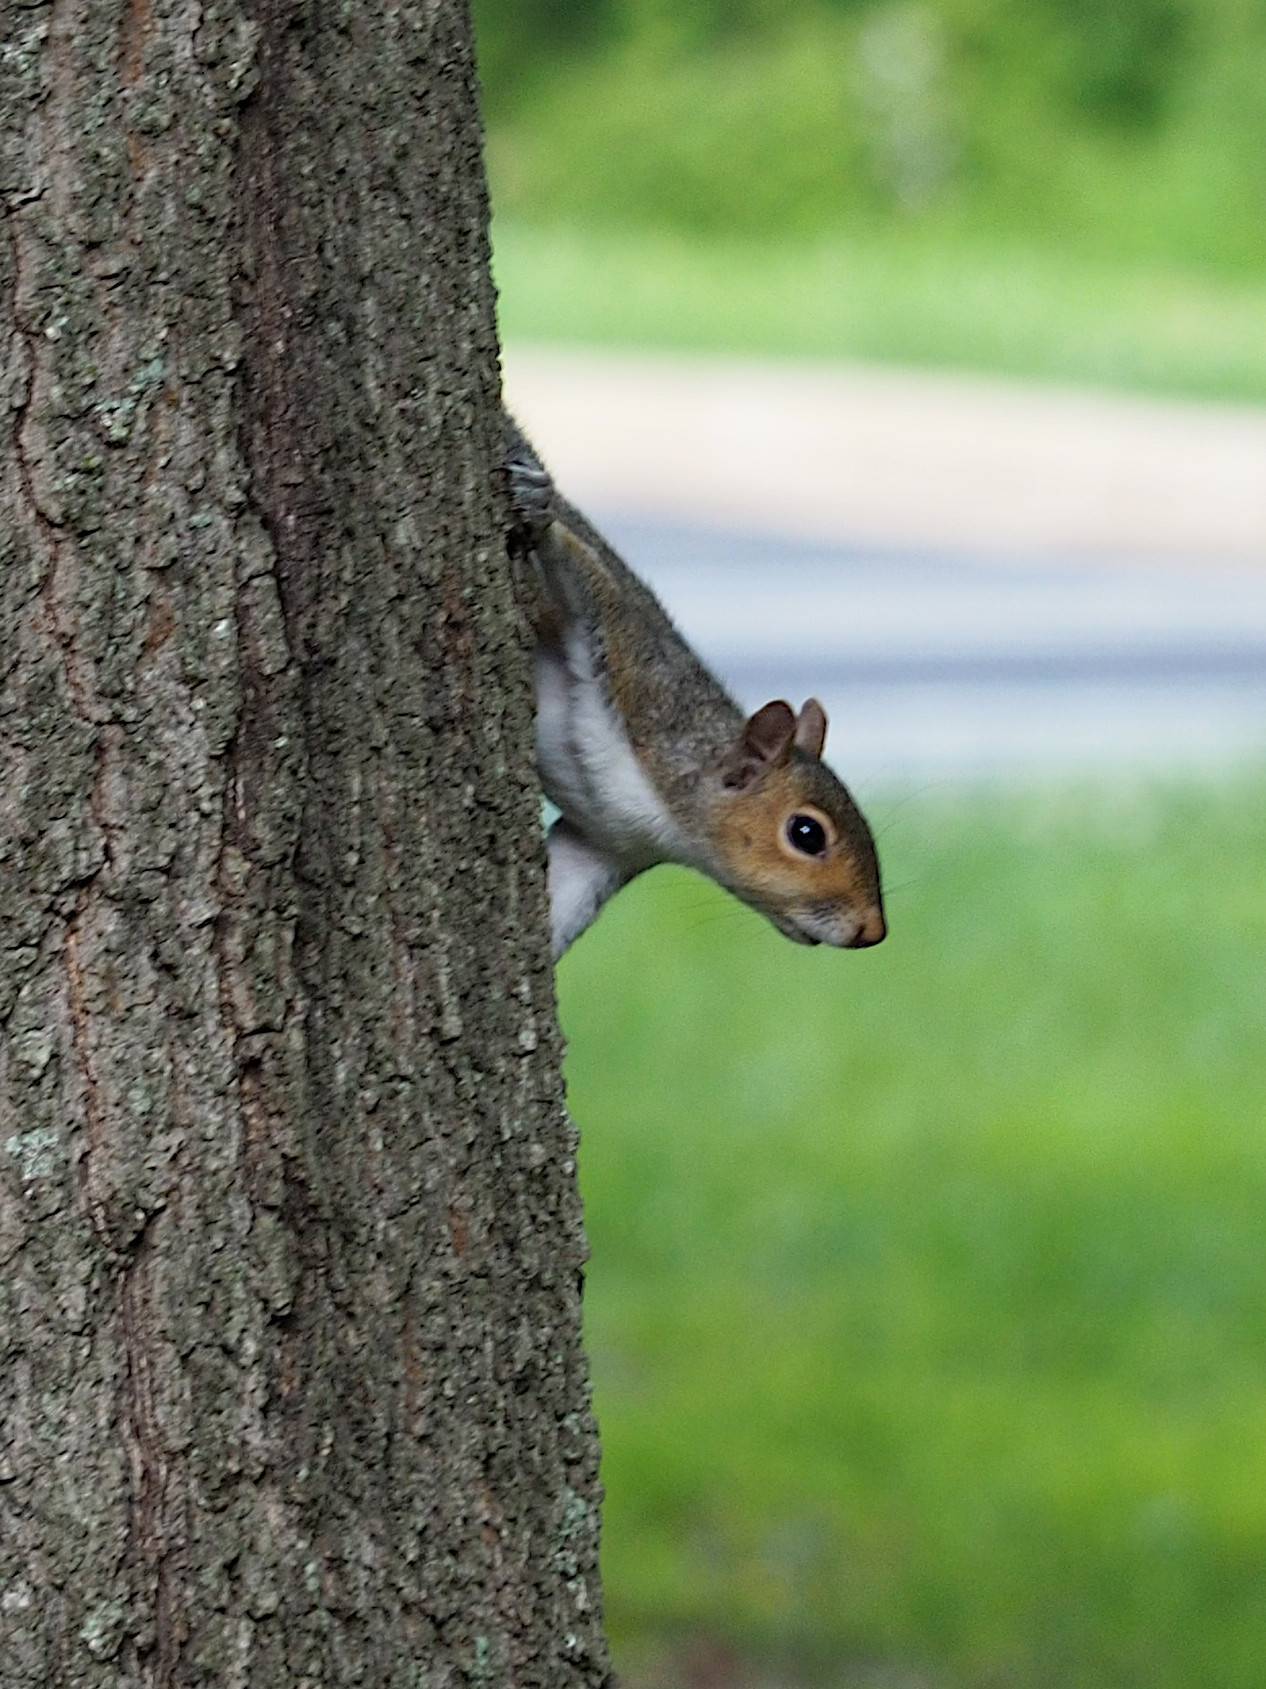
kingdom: Animalia
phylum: Chordata
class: Mammalia
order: Rodentia
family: Sciuridae
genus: Sciurus
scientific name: Sciurus carolinensis
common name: Eastern gray squirrel
